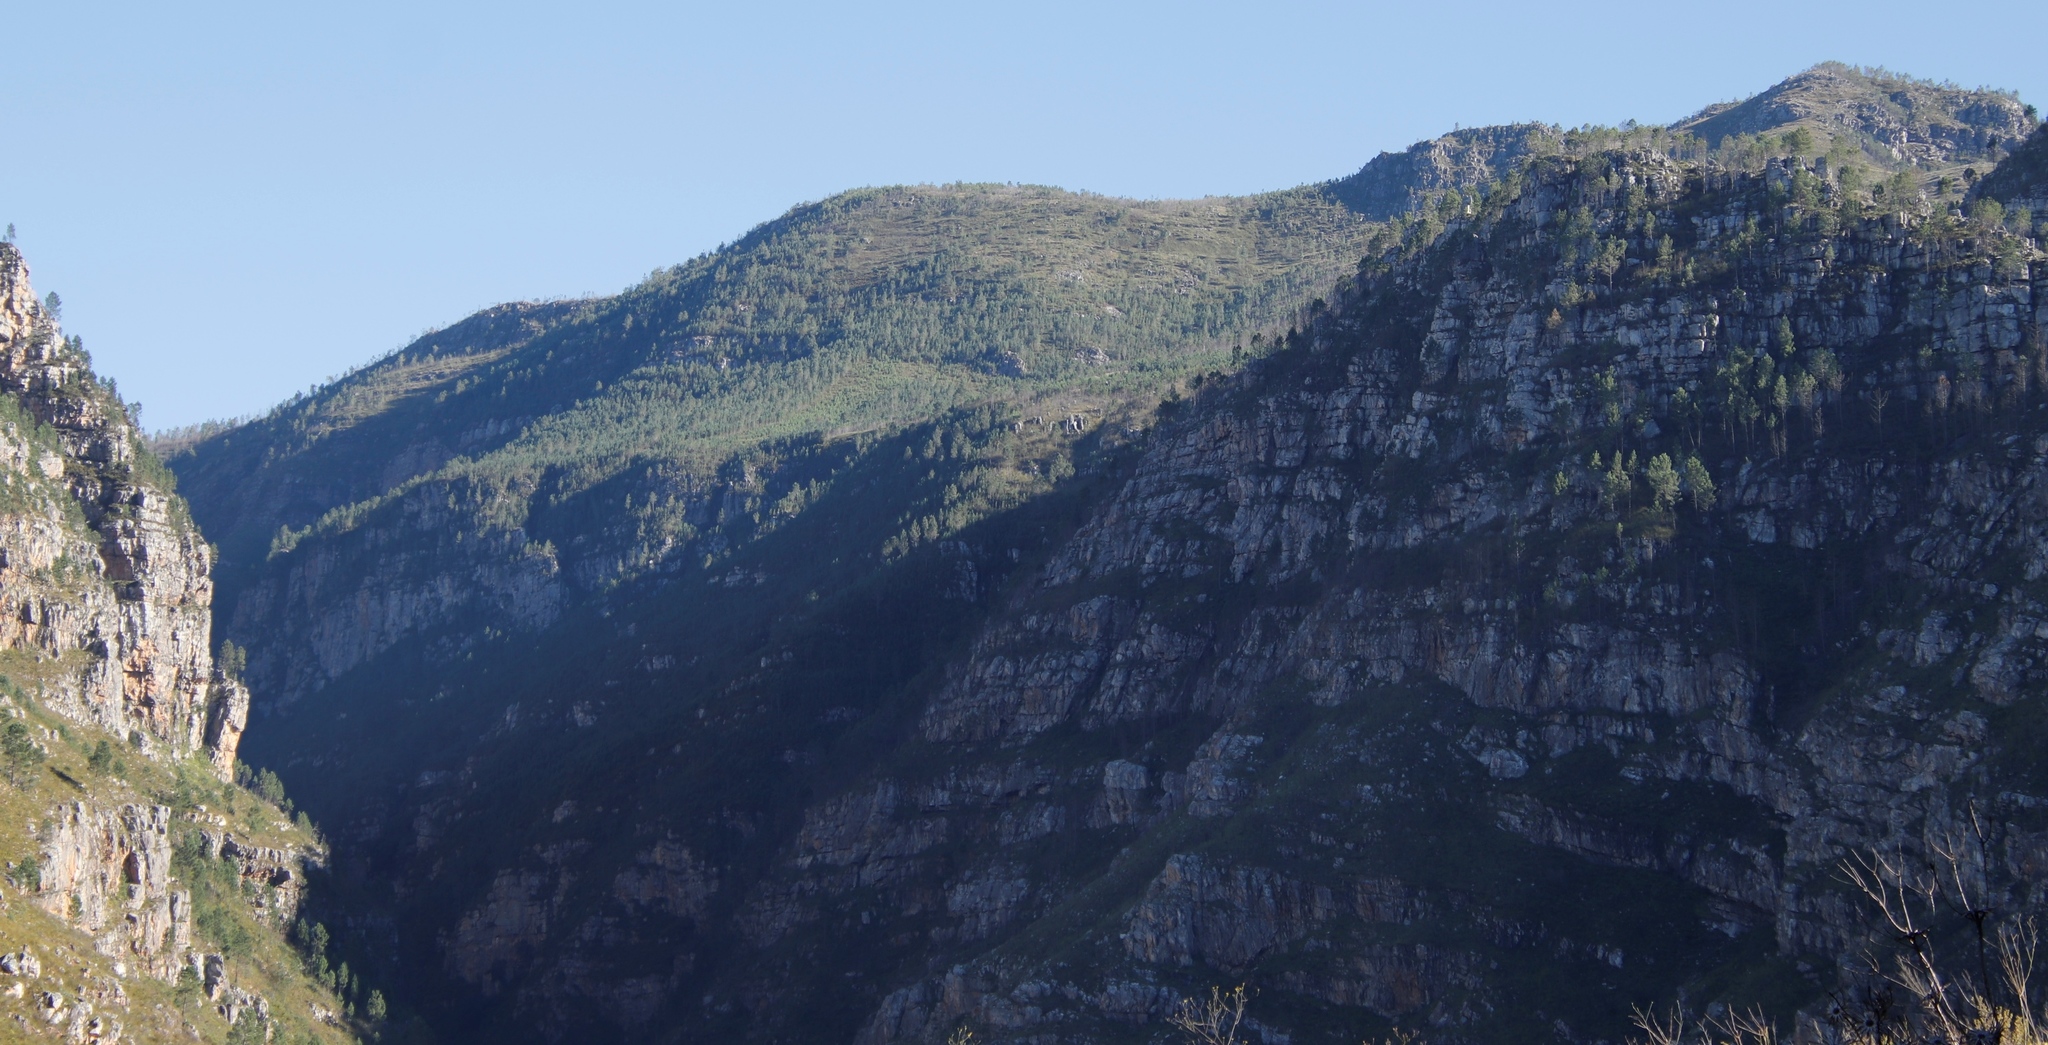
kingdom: Plantae
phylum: Tracheophyta
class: Pinopsida
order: Pinales
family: Pinaceae
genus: Pinus
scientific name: Pinus pinaster
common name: Maritime pine
